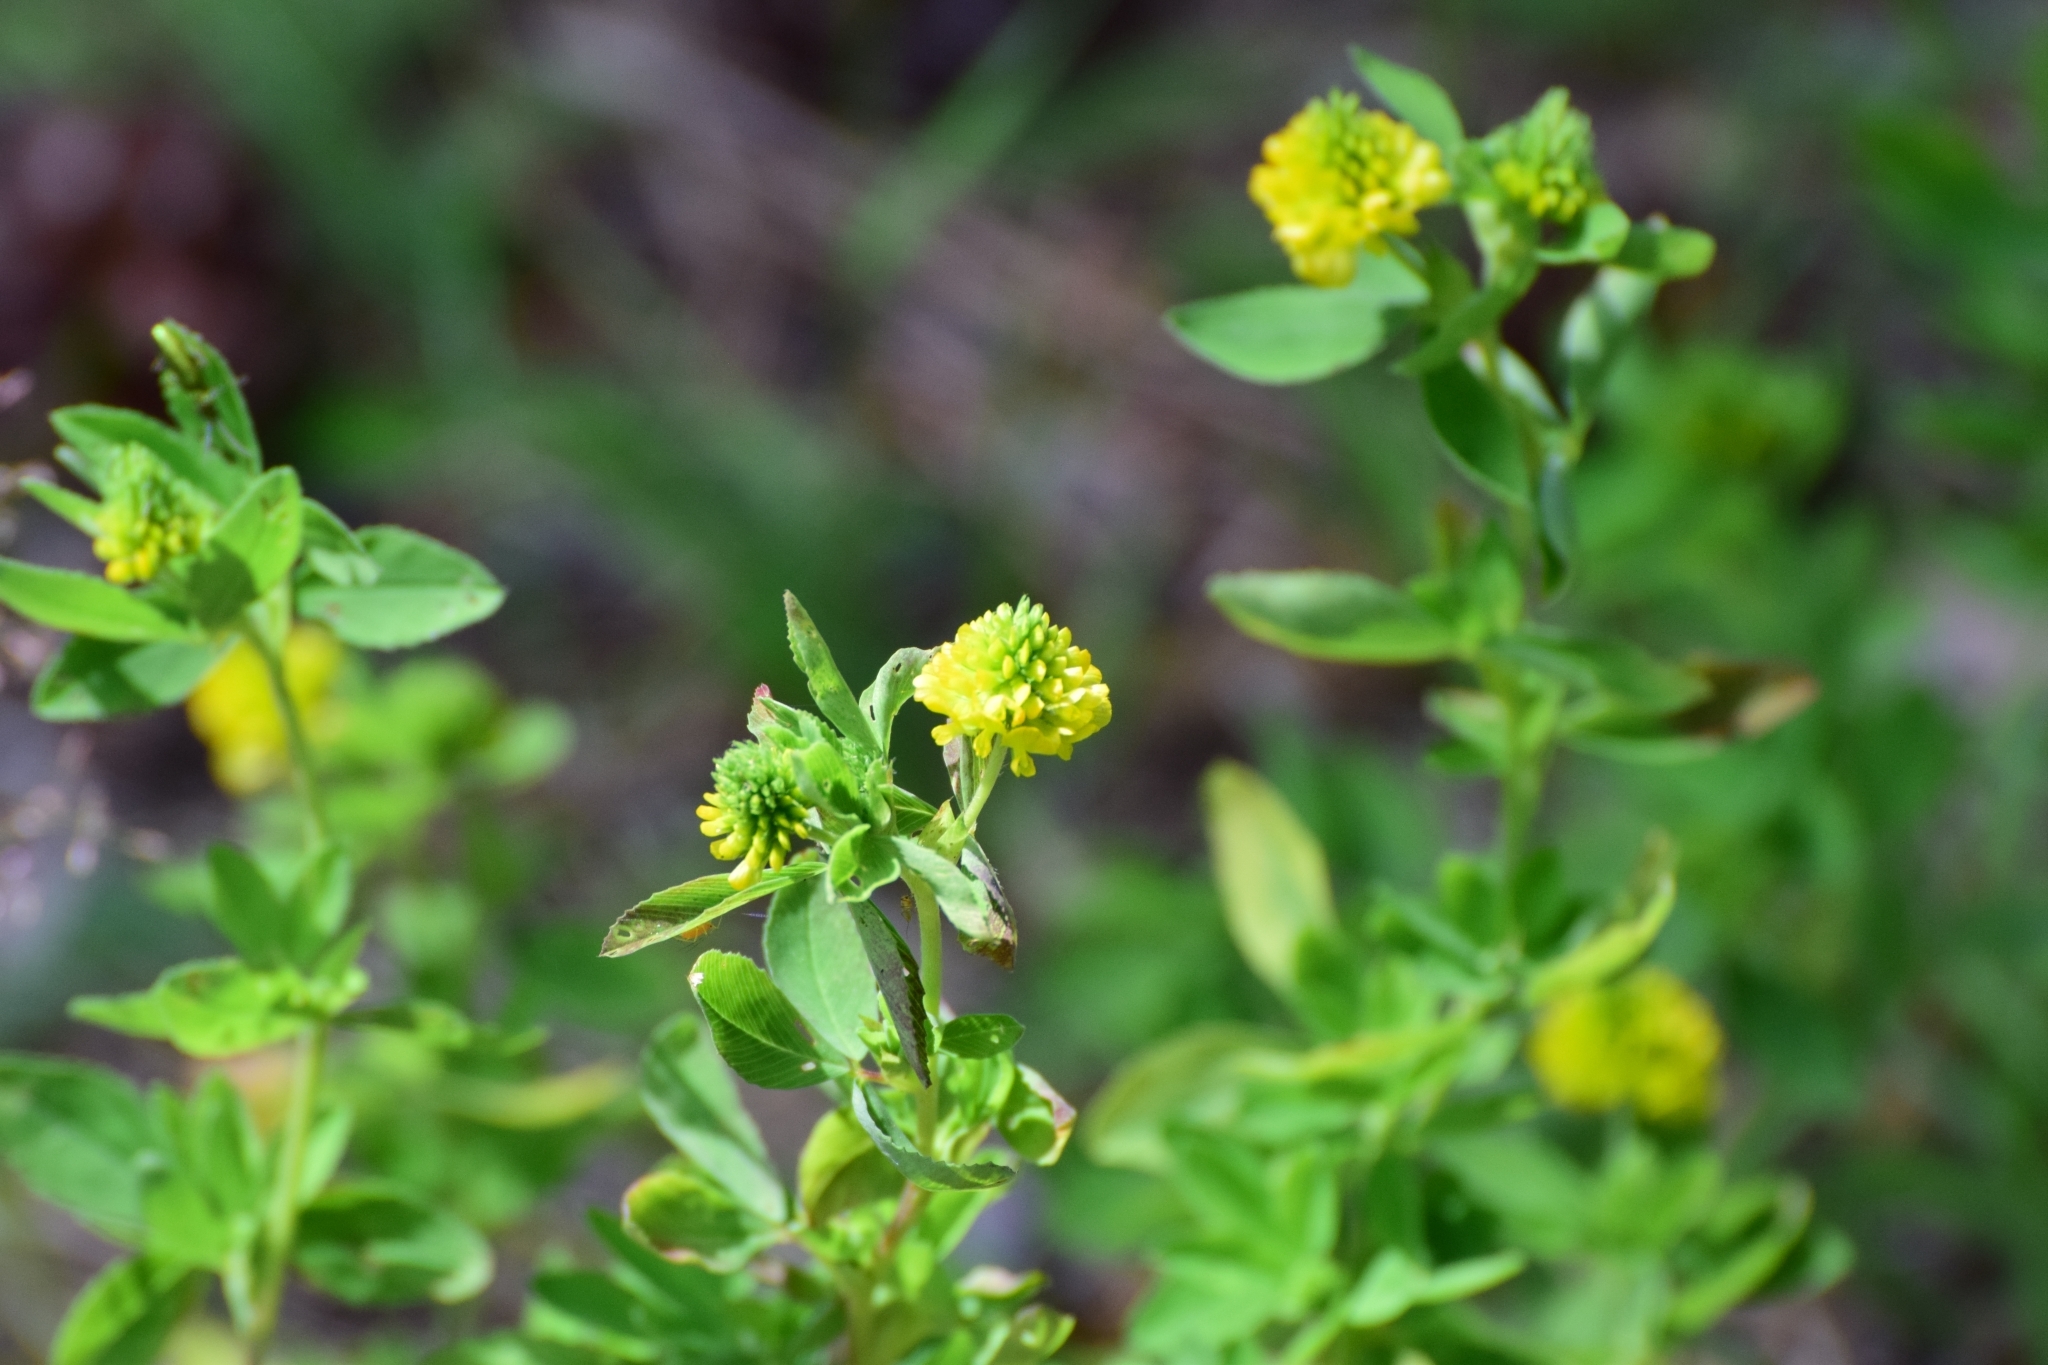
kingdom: Plantae
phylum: Tracheophyta
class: Magnoliopsida
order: Fabales
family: Fabaceae
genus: Trifolium
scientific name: Trifolium aureum
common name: Golden clover
